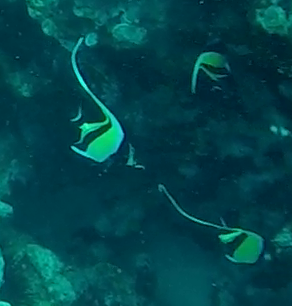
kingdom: Animalia
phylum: Chordata
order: Perciformes
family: Zanclidae
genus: Zanclus
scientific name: Zanclus cornutus
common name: Moorish idol
